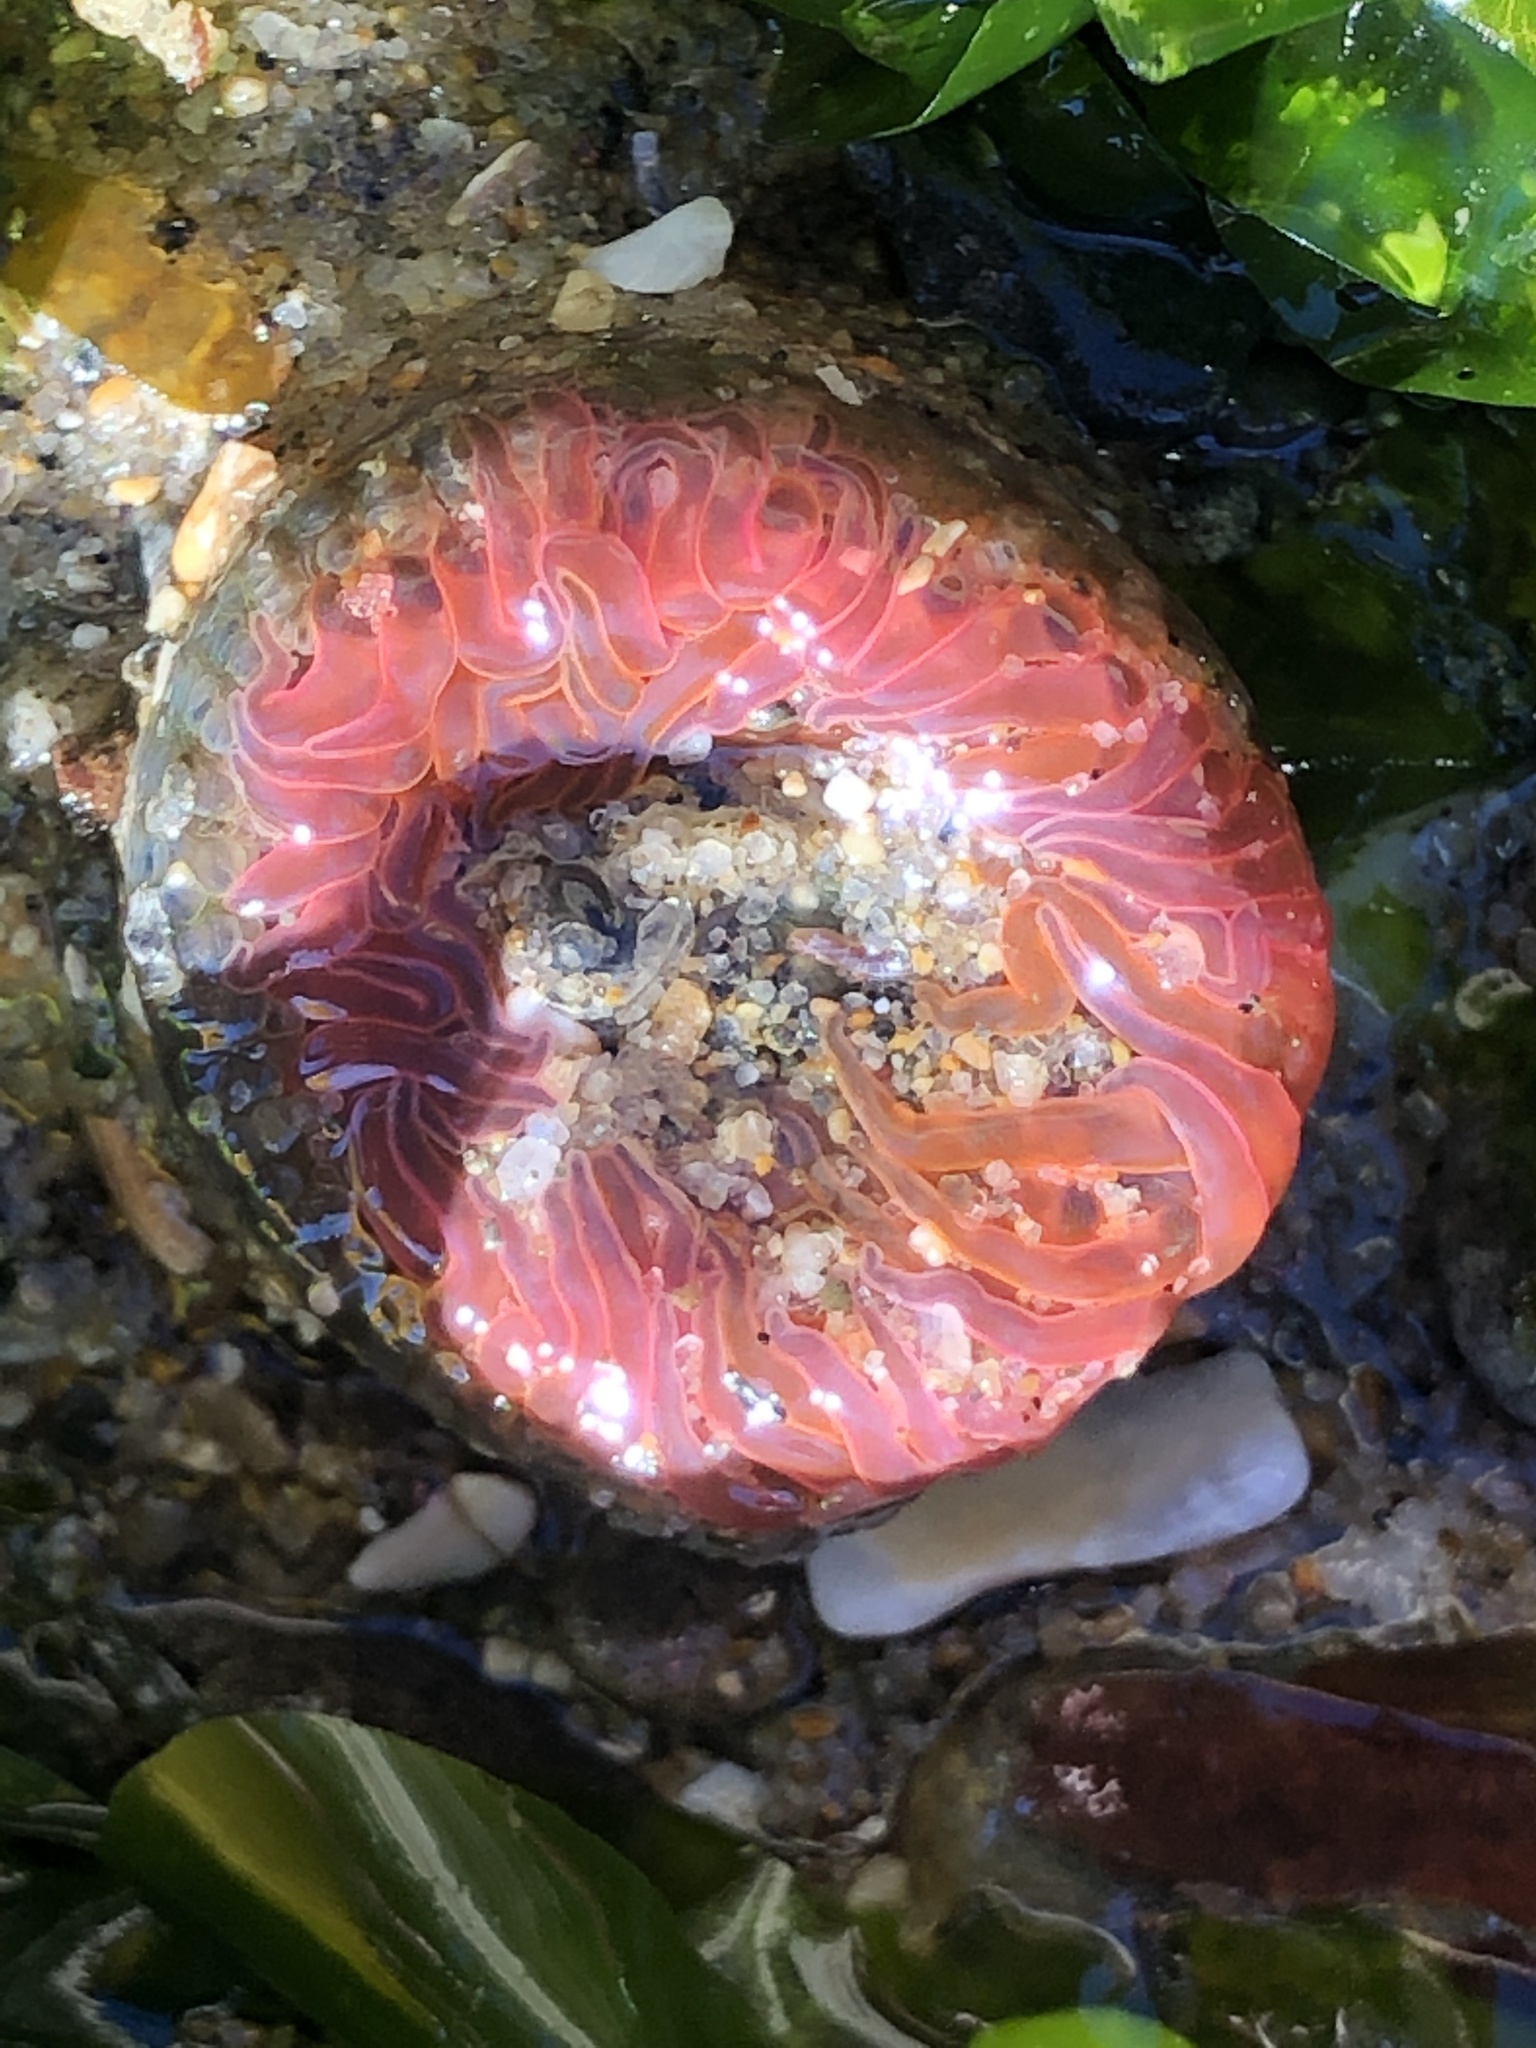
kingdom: Animalia
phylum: Cnidaria
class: Anthozoa
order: Actiniaria
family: Actiniidae
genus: Anthopleura
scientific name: Anthopleura artemisia
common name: Buried sea anemone
